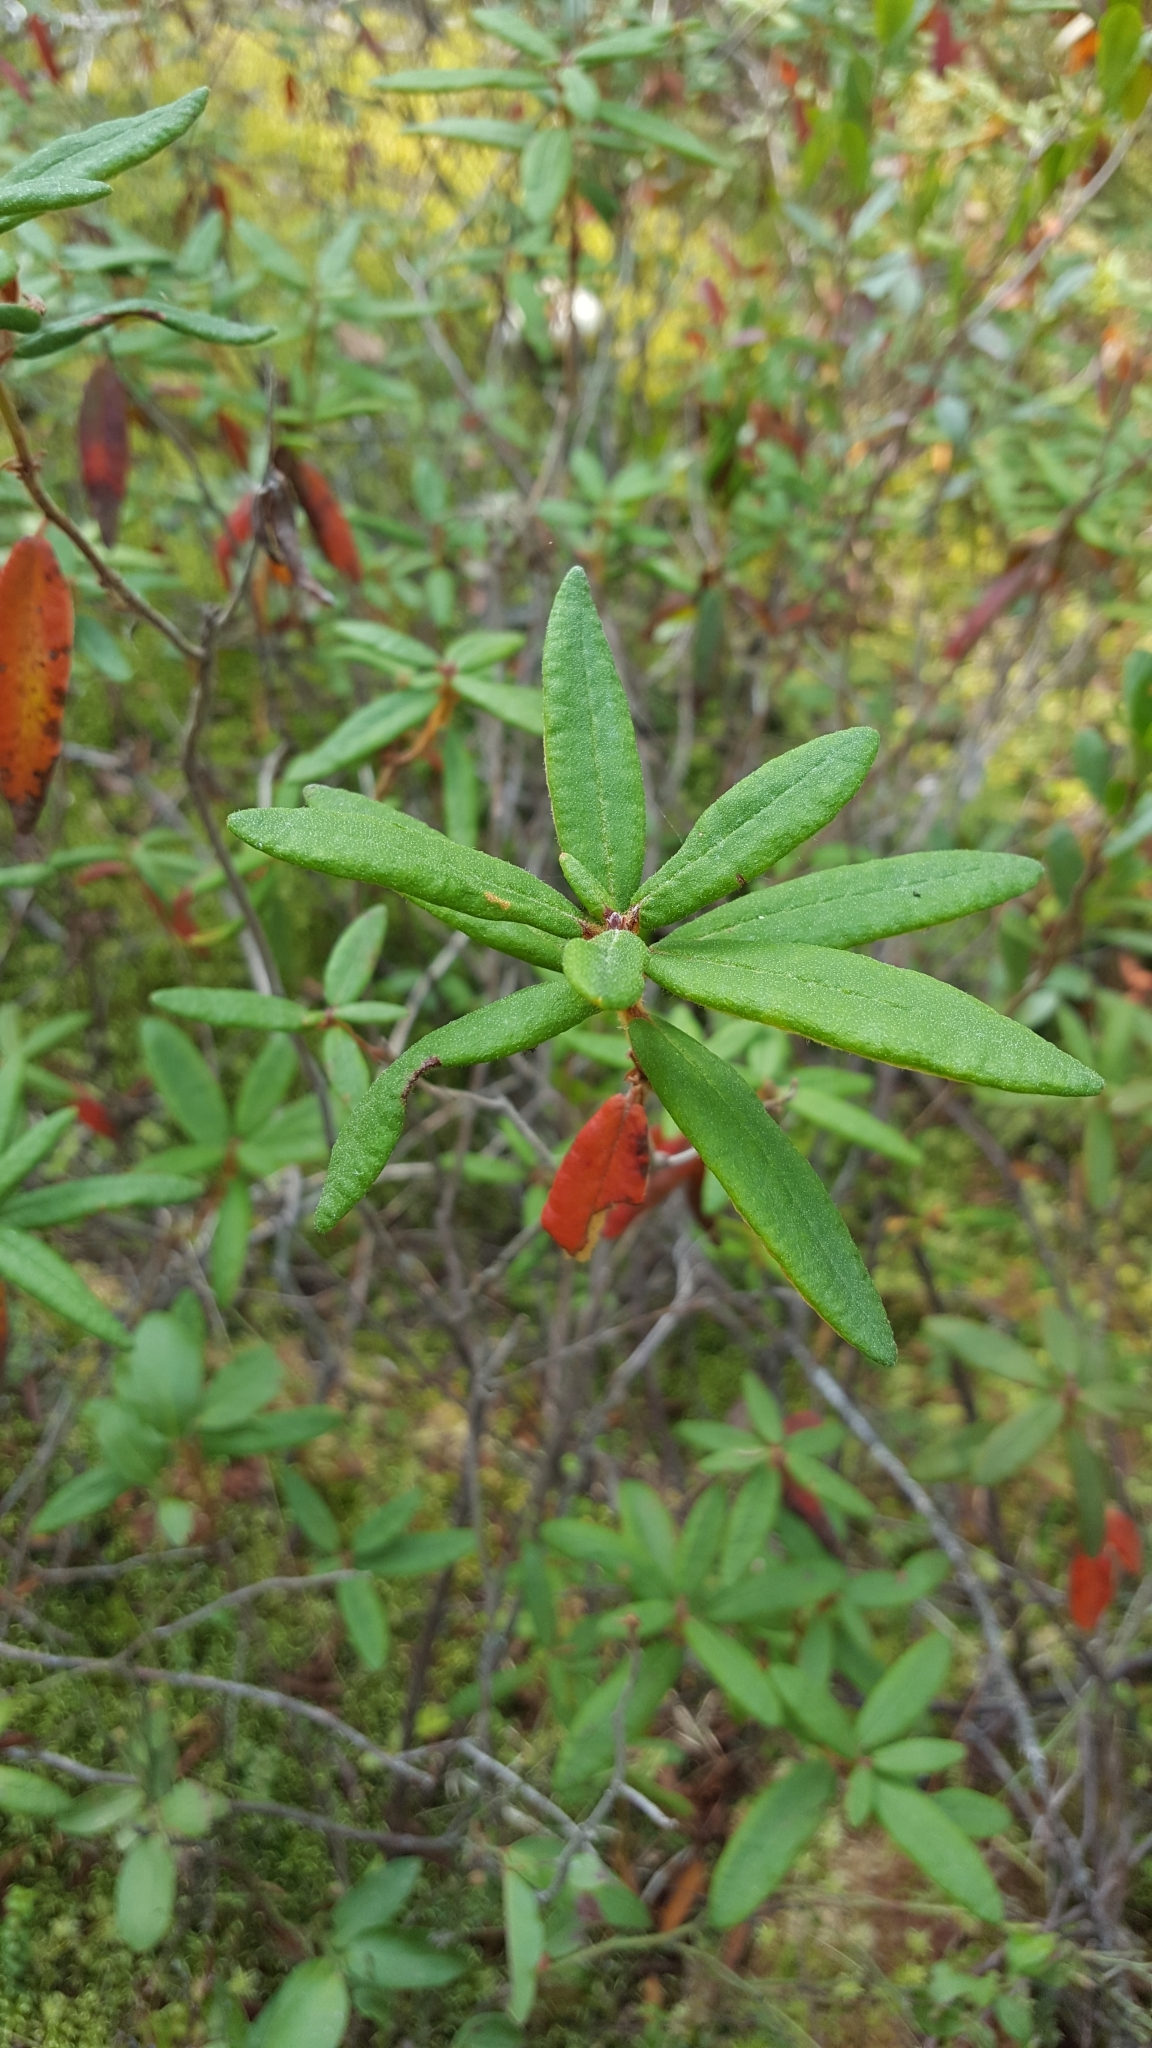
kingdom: Plantae
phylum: Tracheophyta
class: Magnoliopsida
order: Ericales
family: Ericaceae
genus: Rhododendron
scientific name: Rhododendron groenlandicum
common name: Bog labrador tea
